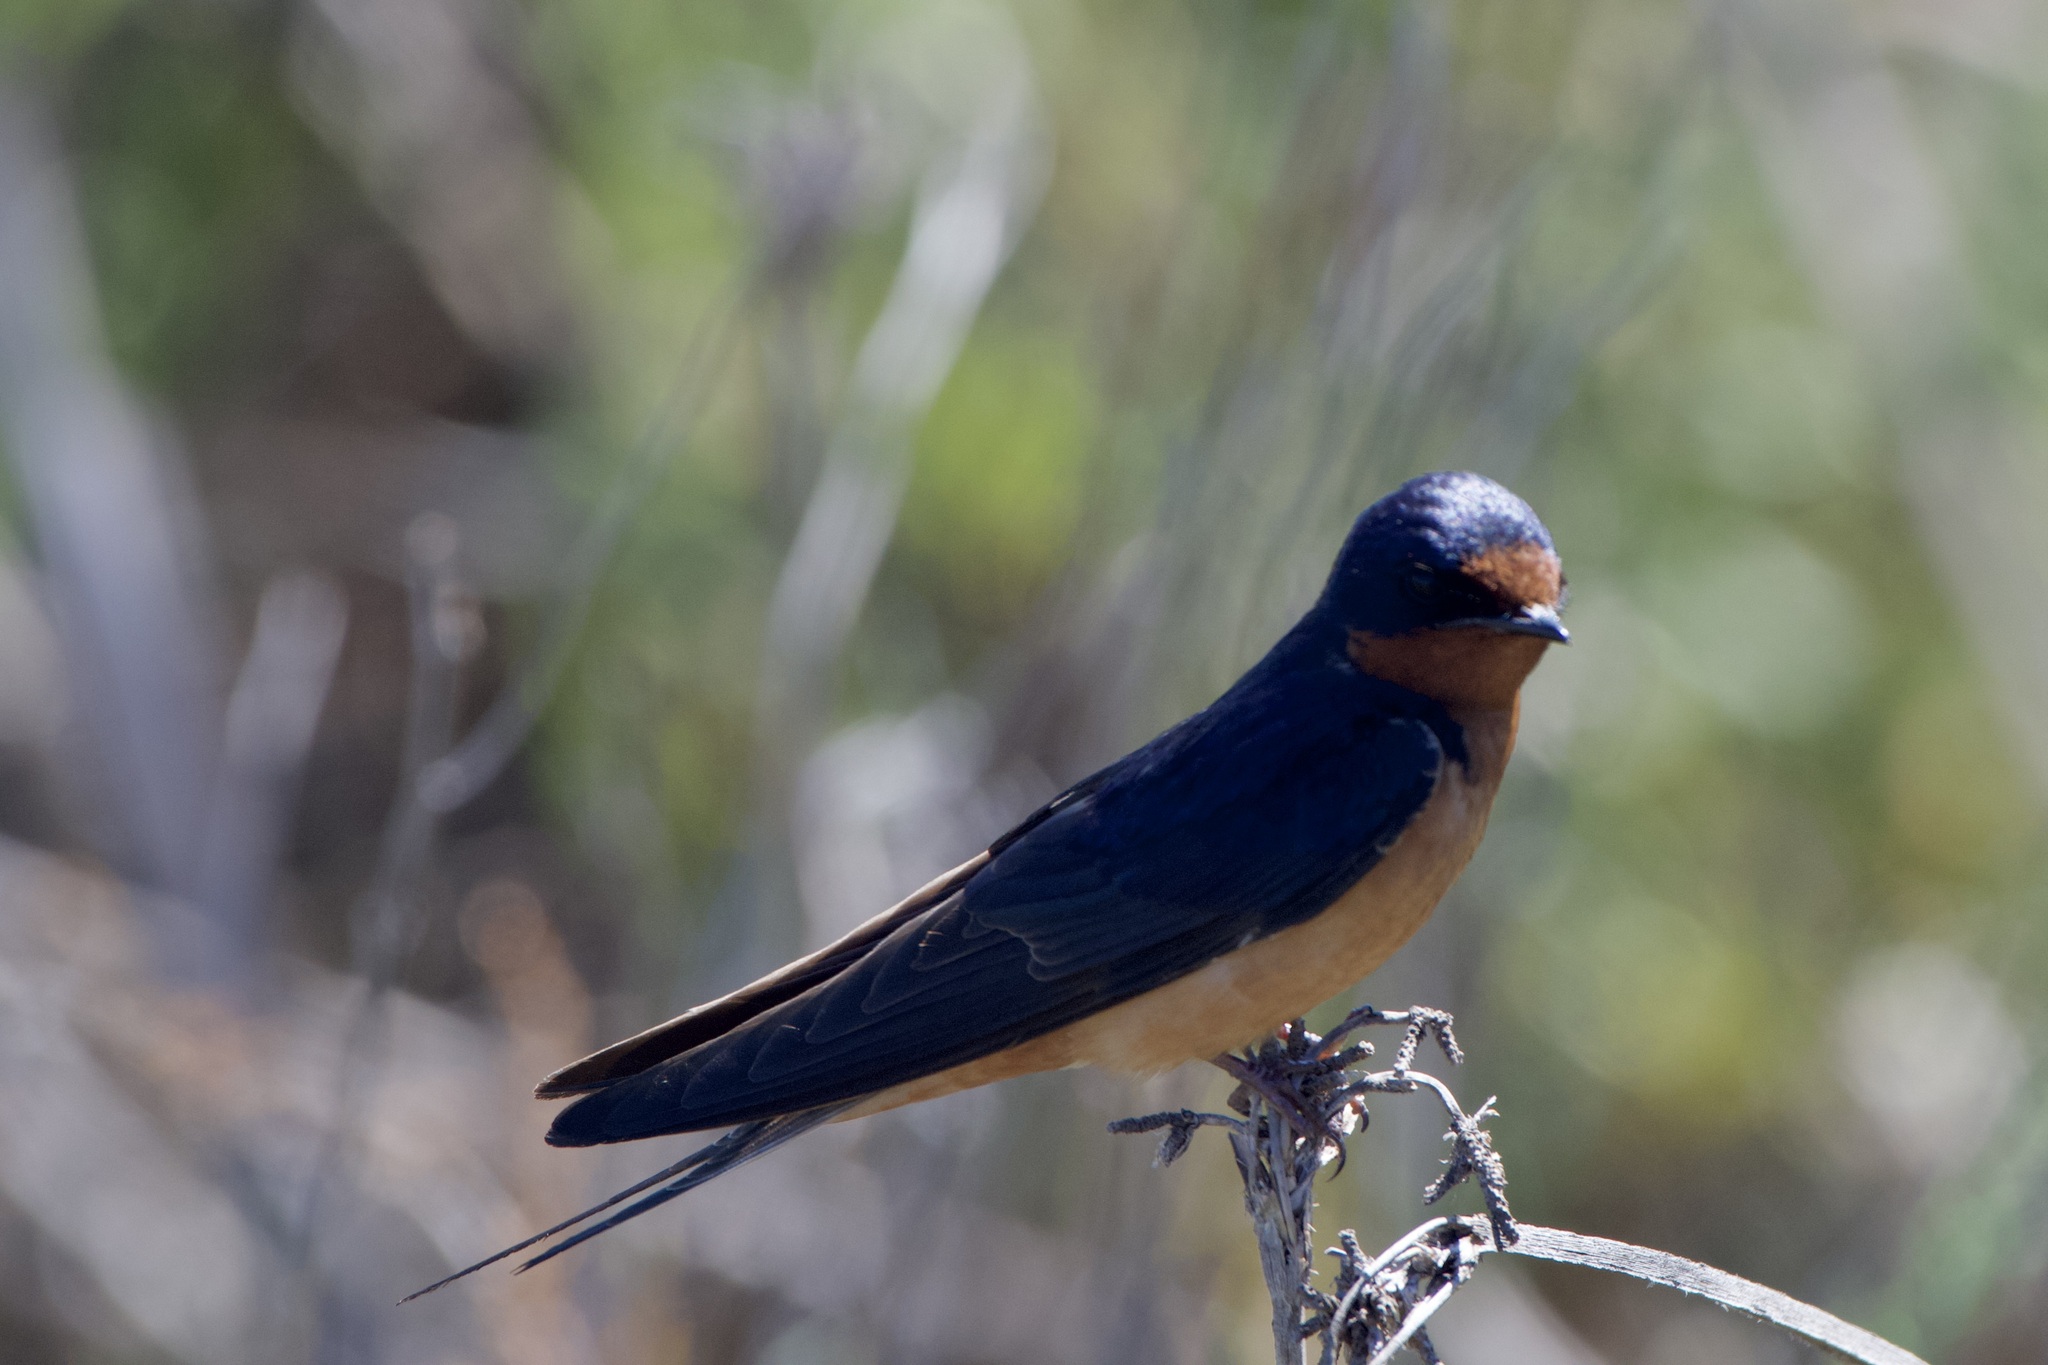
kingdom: Animalia
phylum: Chordata
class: Aves
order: Passeriformes
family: Hirundinidae
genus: Hirundo
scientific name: Hirundo rustica
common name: Barn swallow
